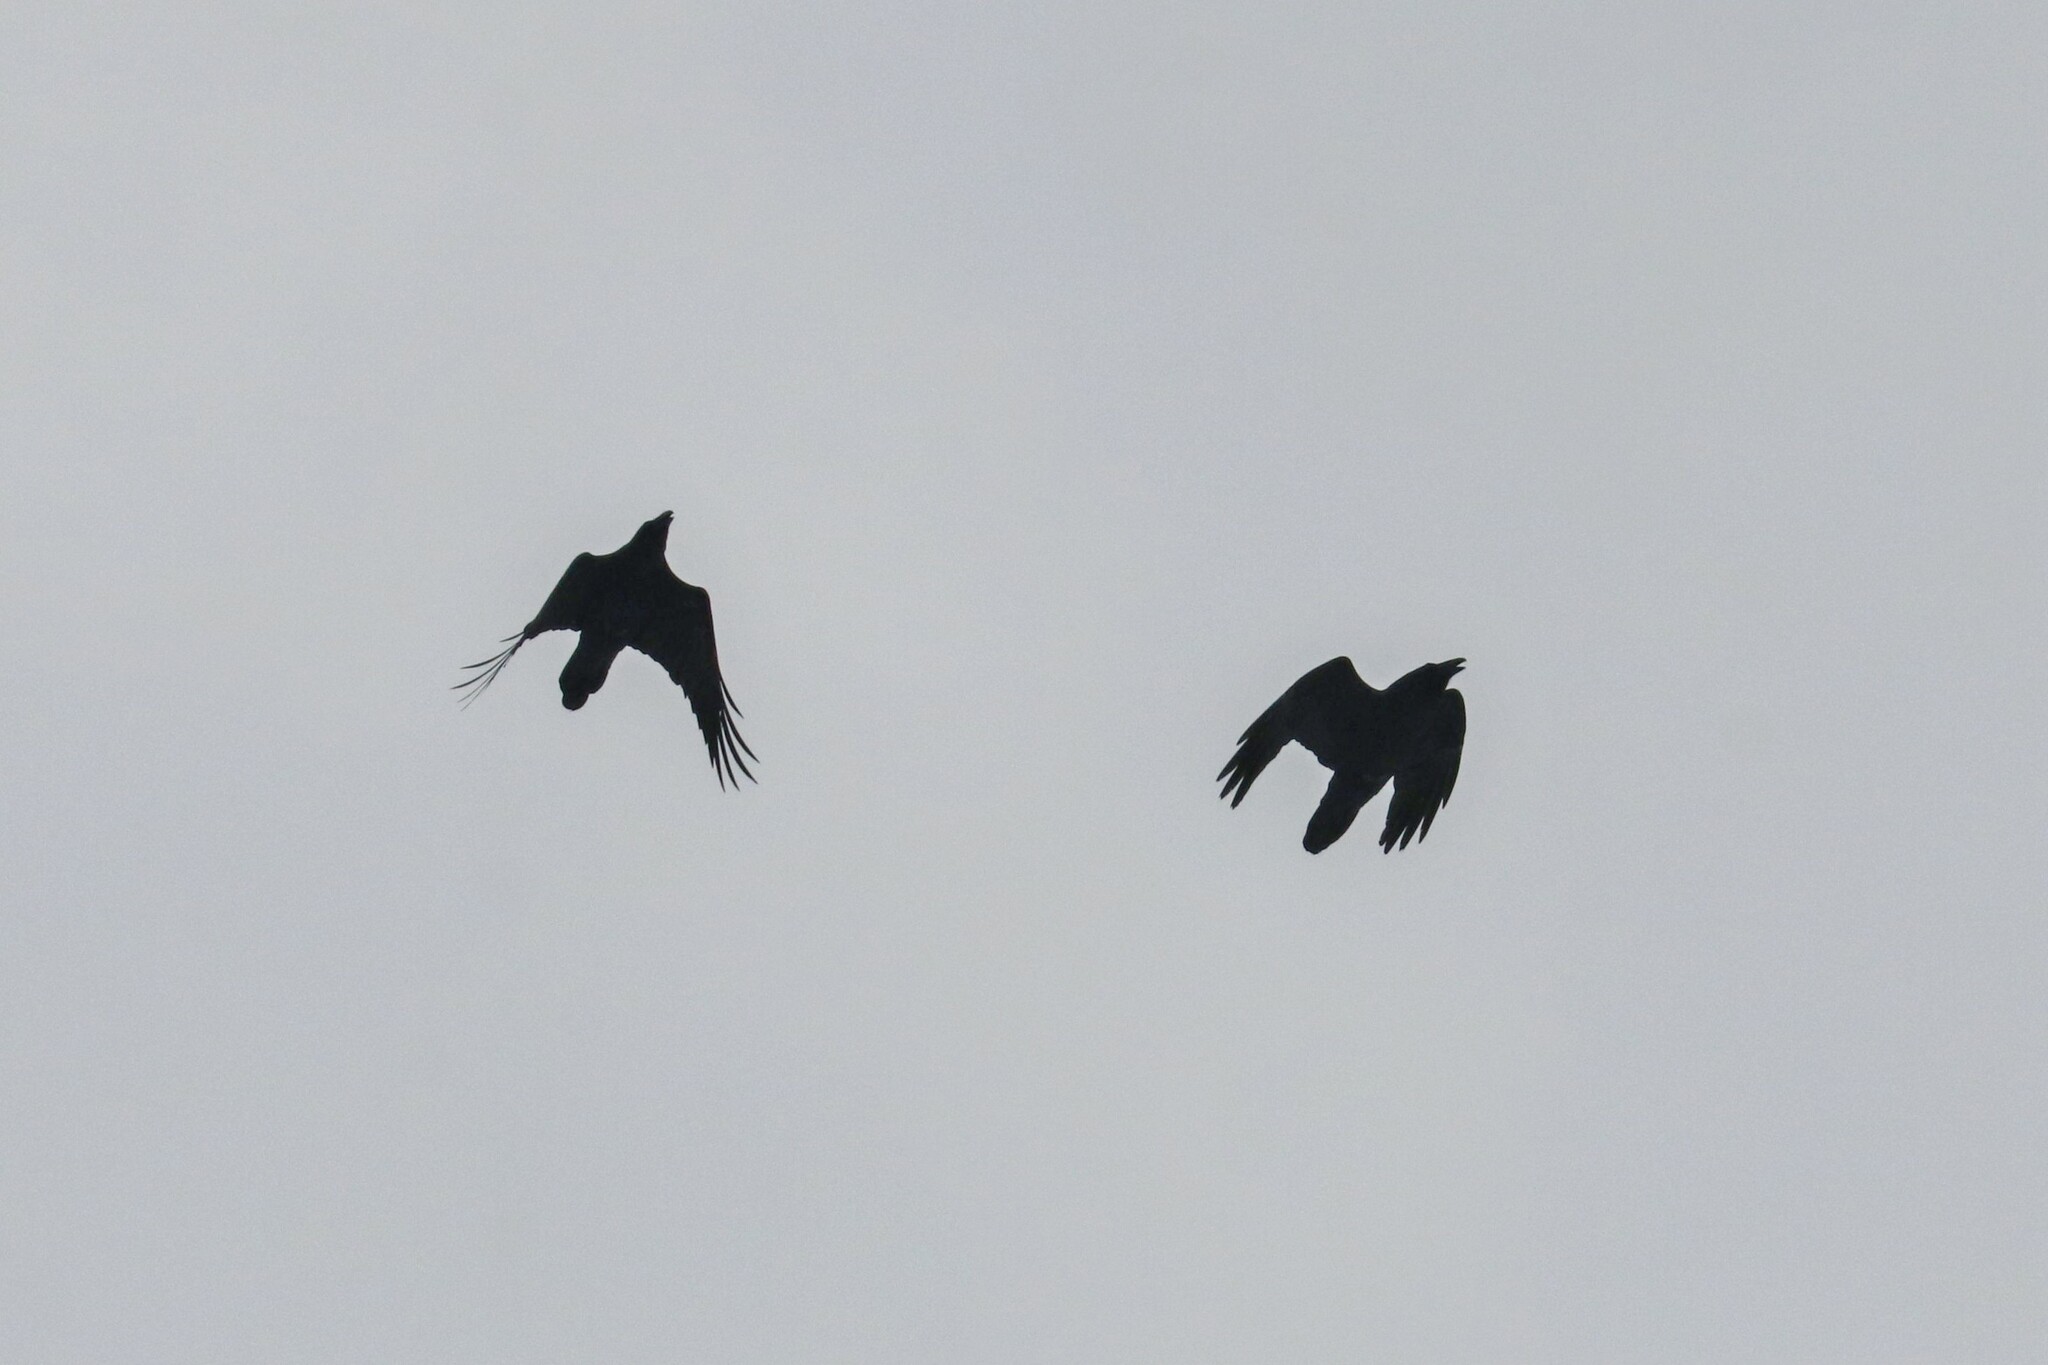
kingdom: Animalia
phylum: Chordata
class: Aves
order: Passeriformes
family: Corvidae
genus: Corvus
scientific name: Corvus corax
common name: Common raven
